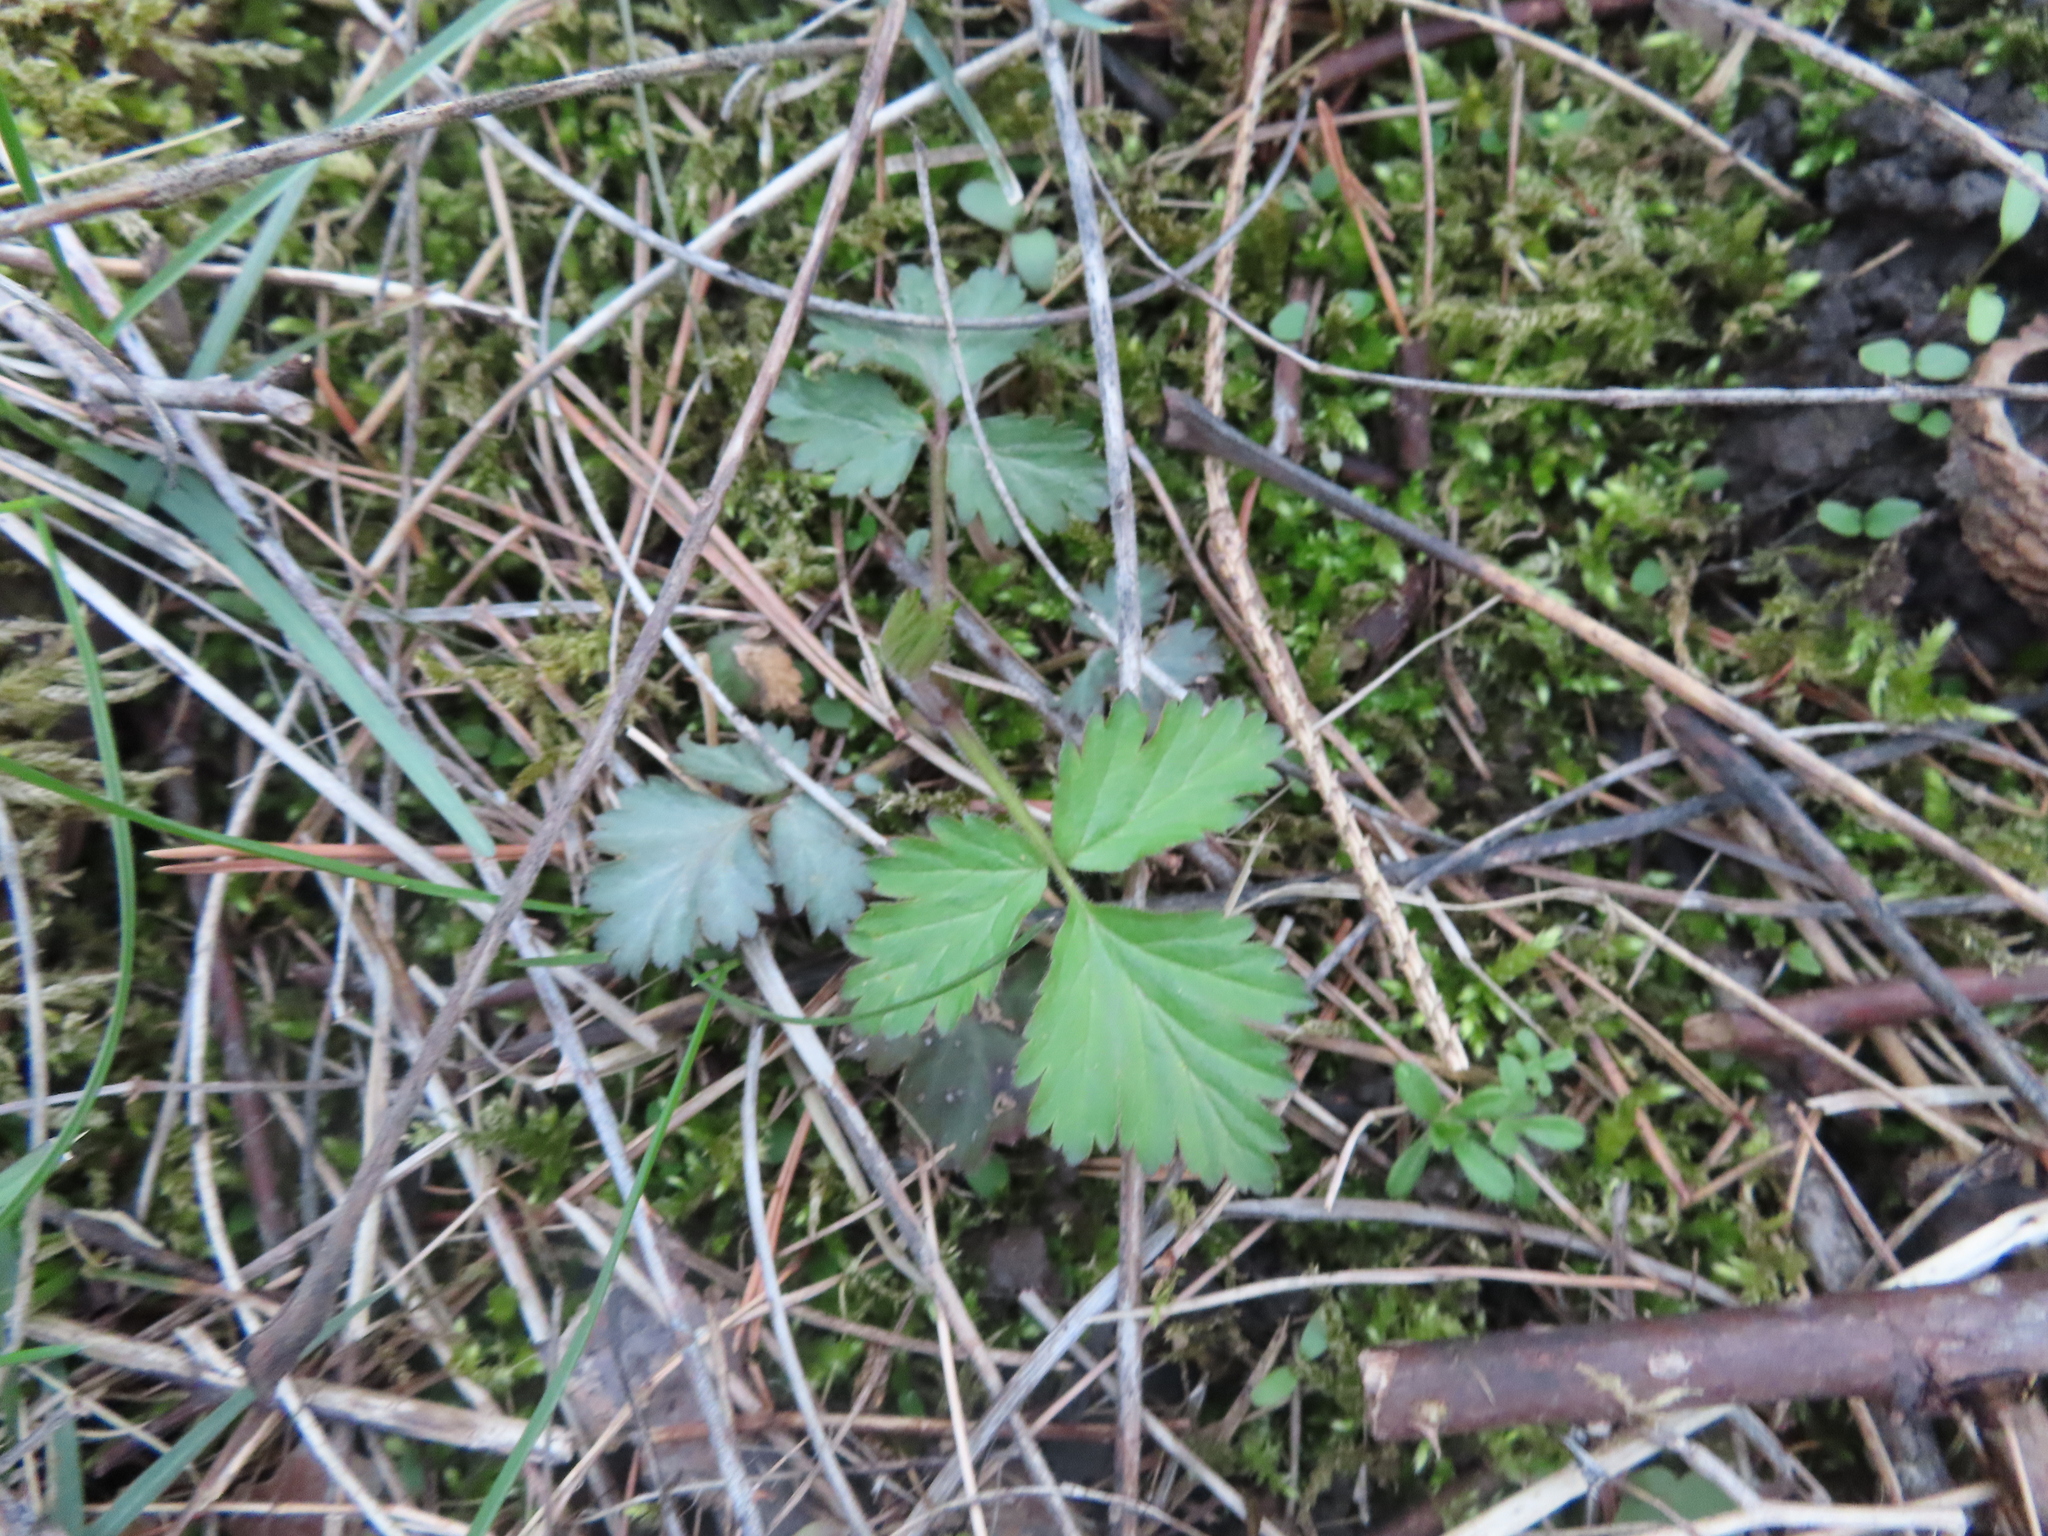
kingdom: Plantae
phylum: Tracheophyta
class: Magnoliopsida
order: Rosales
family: Rosaceae
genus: Geum
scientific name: Geum canadense
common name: White avens
